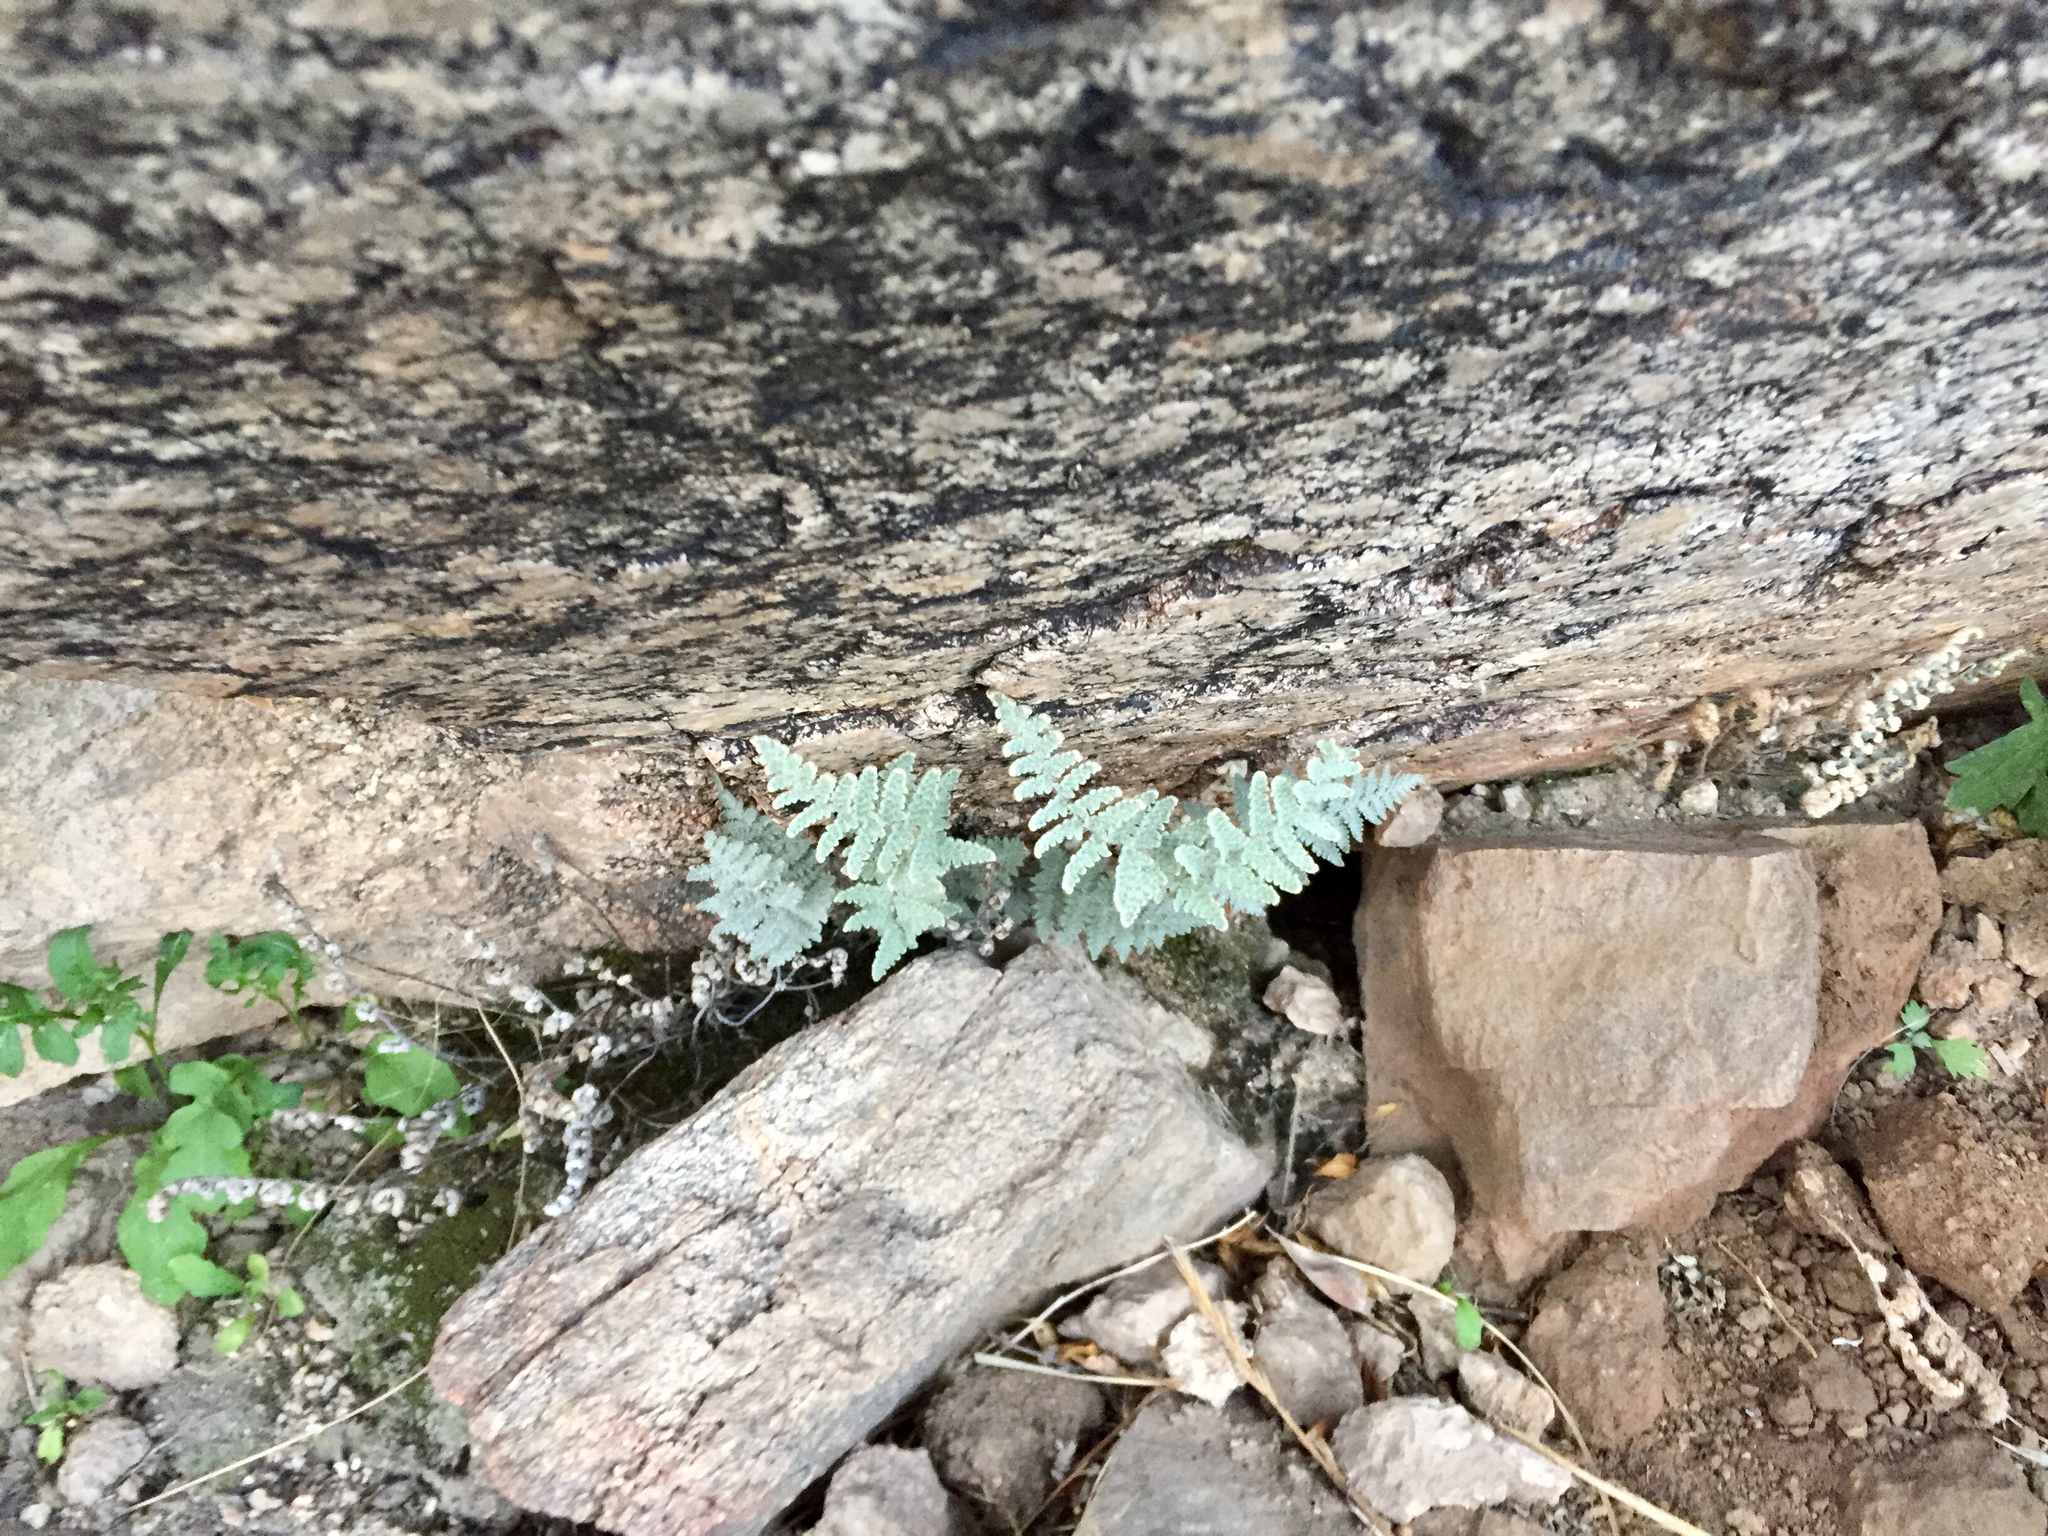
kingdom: Plantae
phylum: Tracheophyta
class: Polypodiopsida
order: Polypodiales
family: Pteridaceae
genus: Myriopteris
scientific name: Myriopteris lindheimeri
